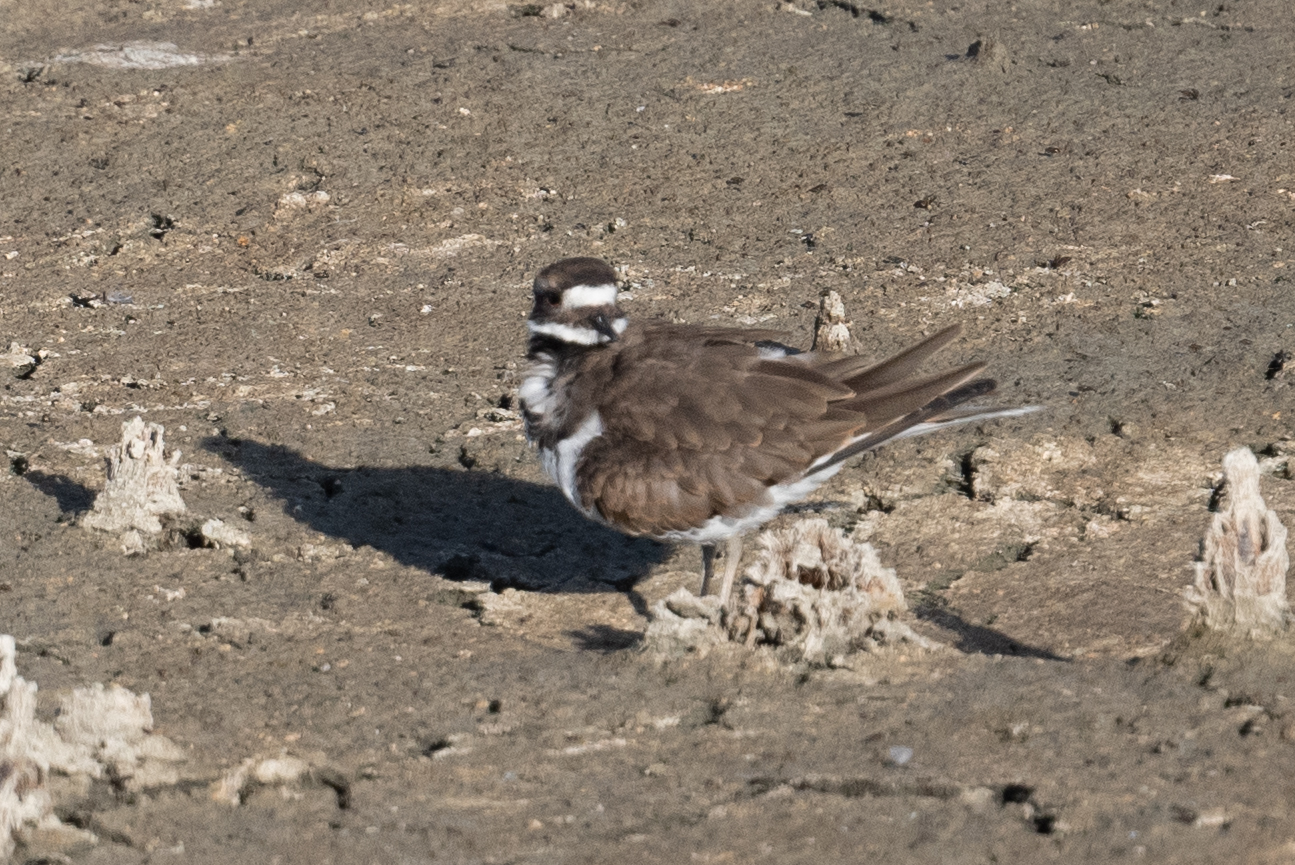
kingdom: Animalia
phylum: Chordata
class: Aves
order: Charadriiformes
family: Charadriidae
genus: Charadrius
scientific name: Charadrius vociferus
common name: Killdeer
